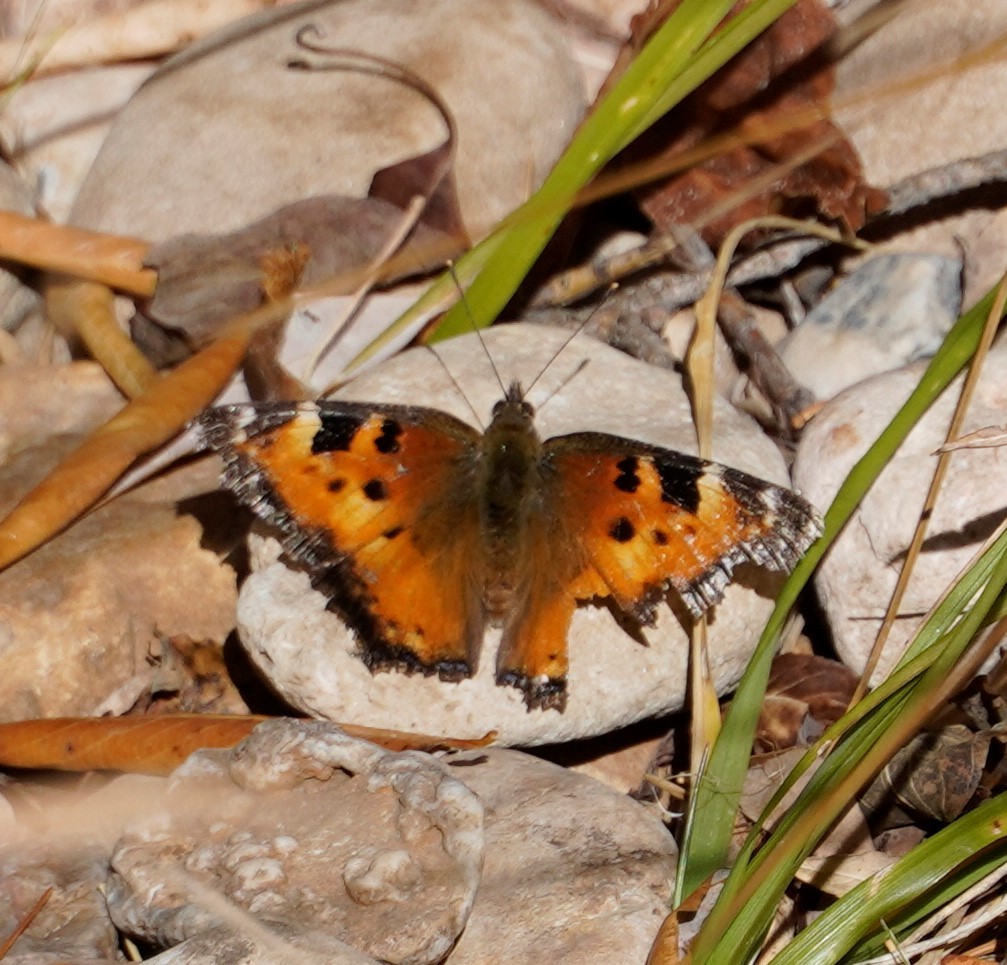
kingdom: Animalia
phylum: Arthropoda
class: Insecta
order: Lepidoptera
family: Nymphalidae
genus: Nymphalis
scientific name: Nymphalis californica
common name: California tortoiseshell
